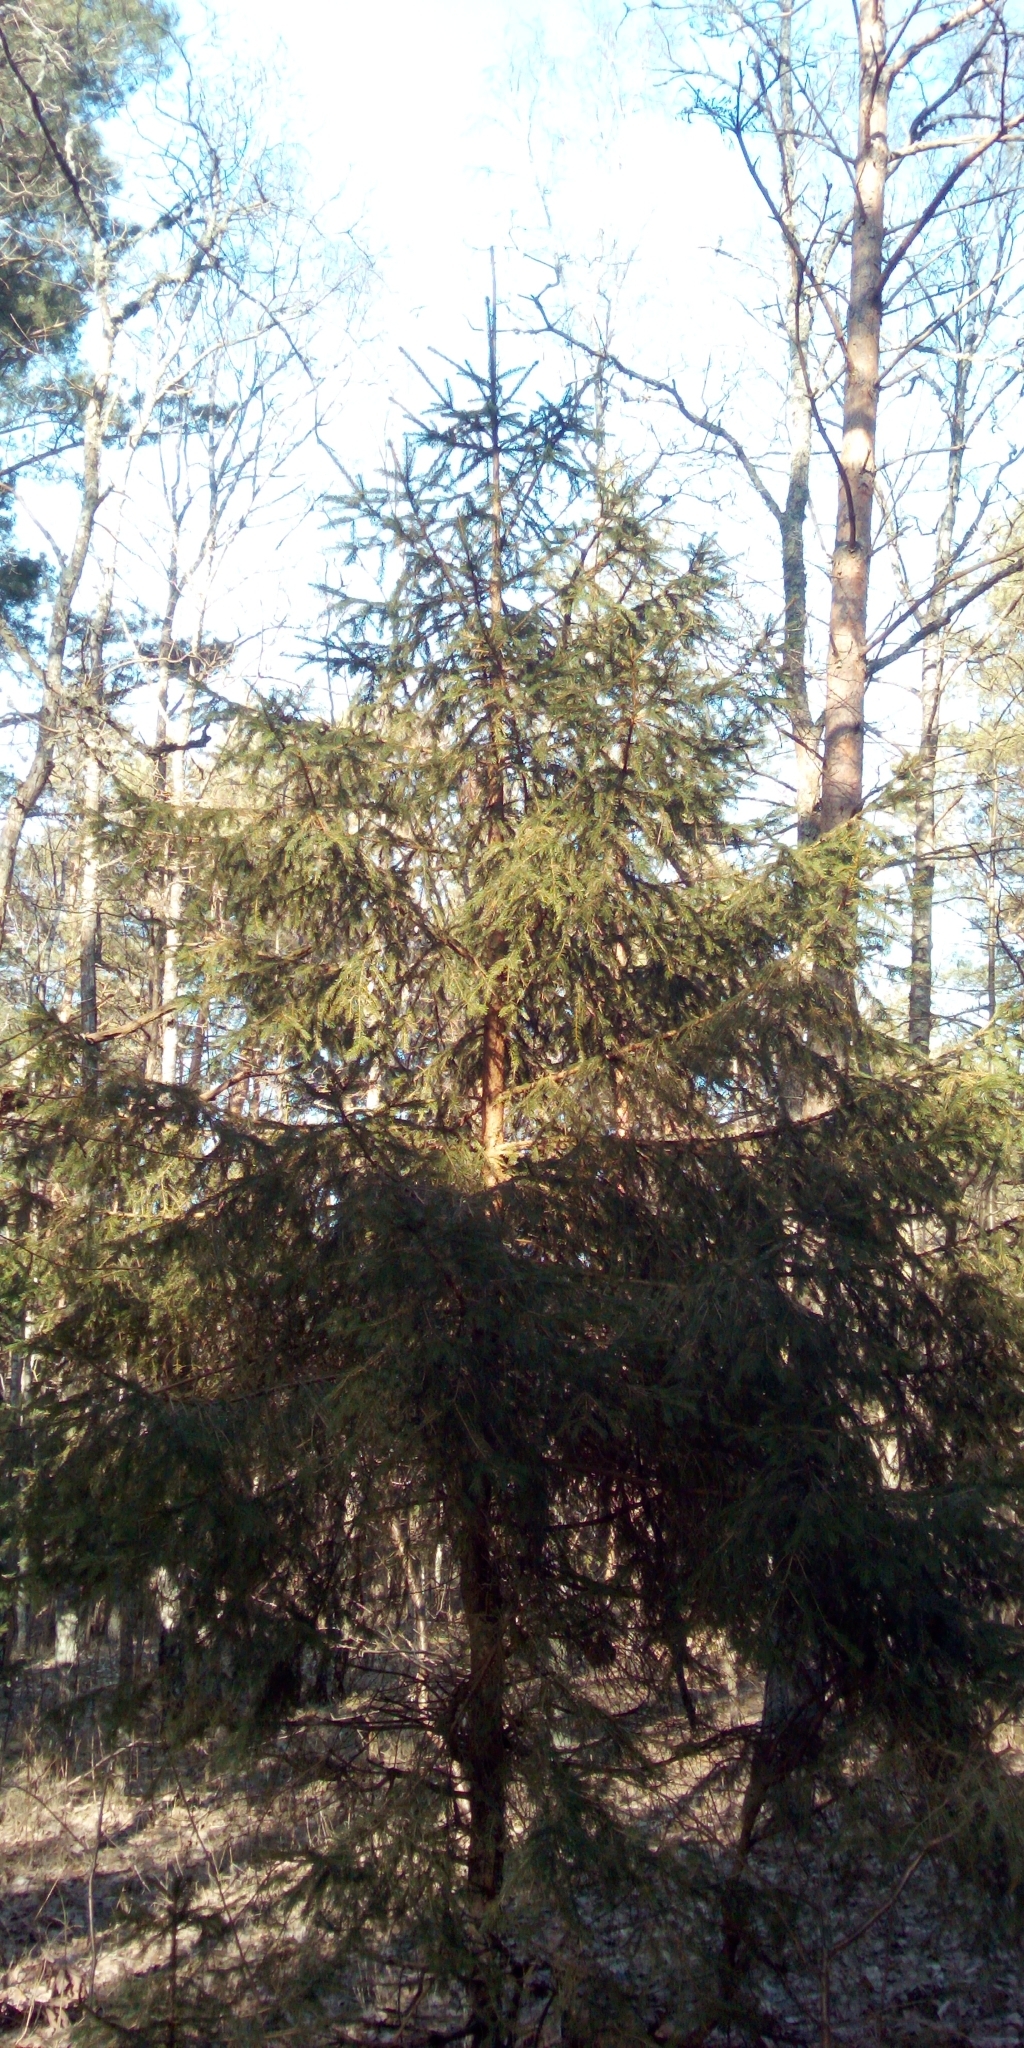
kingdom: Plantae
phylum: Tracheophyta
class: Pinopsida
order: Pinales
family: Pinaceae
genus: Picea
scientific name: Picea abies
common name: Norway spruce
